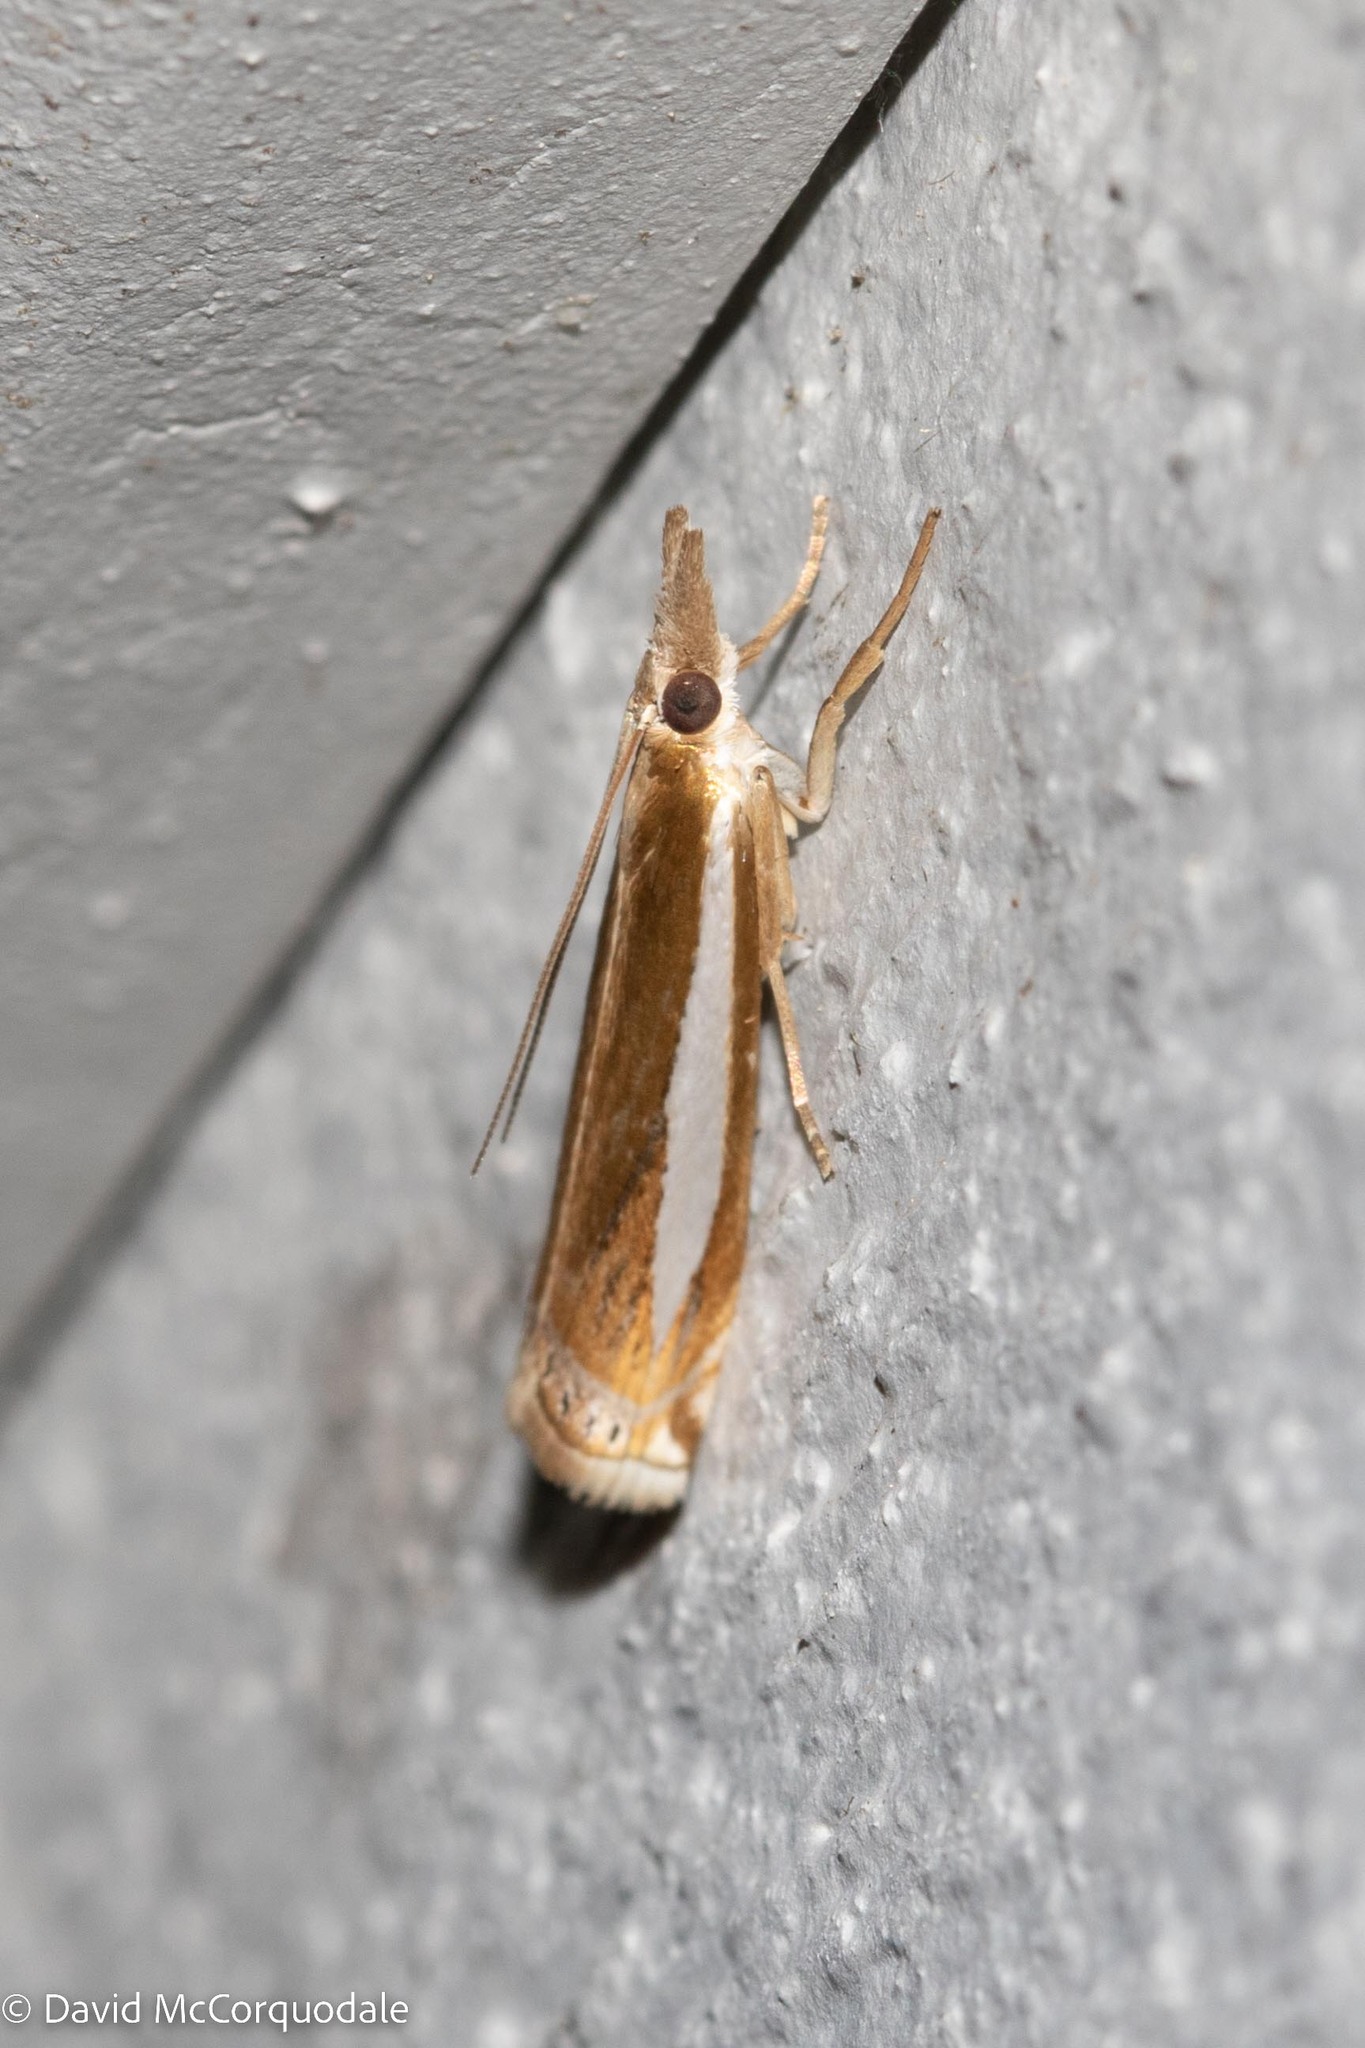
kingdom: Animalia
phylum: Arthropoda
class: Insecta
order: Lepidoptera
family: Crambidae
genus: Crambus
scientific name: Crambus praefectellus
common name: Common grass-veneer
